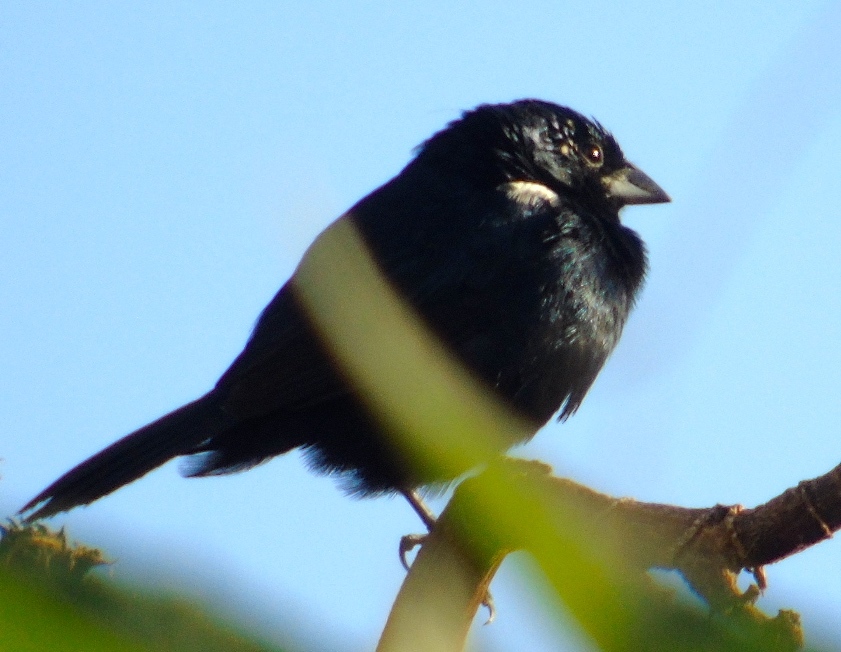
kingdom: Animalia
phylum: Chordata
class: Aves
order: Passeriformes
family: Thraupidae
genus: Volatinia
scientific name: Volatinia jacarina
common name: Blue-black grassquit
